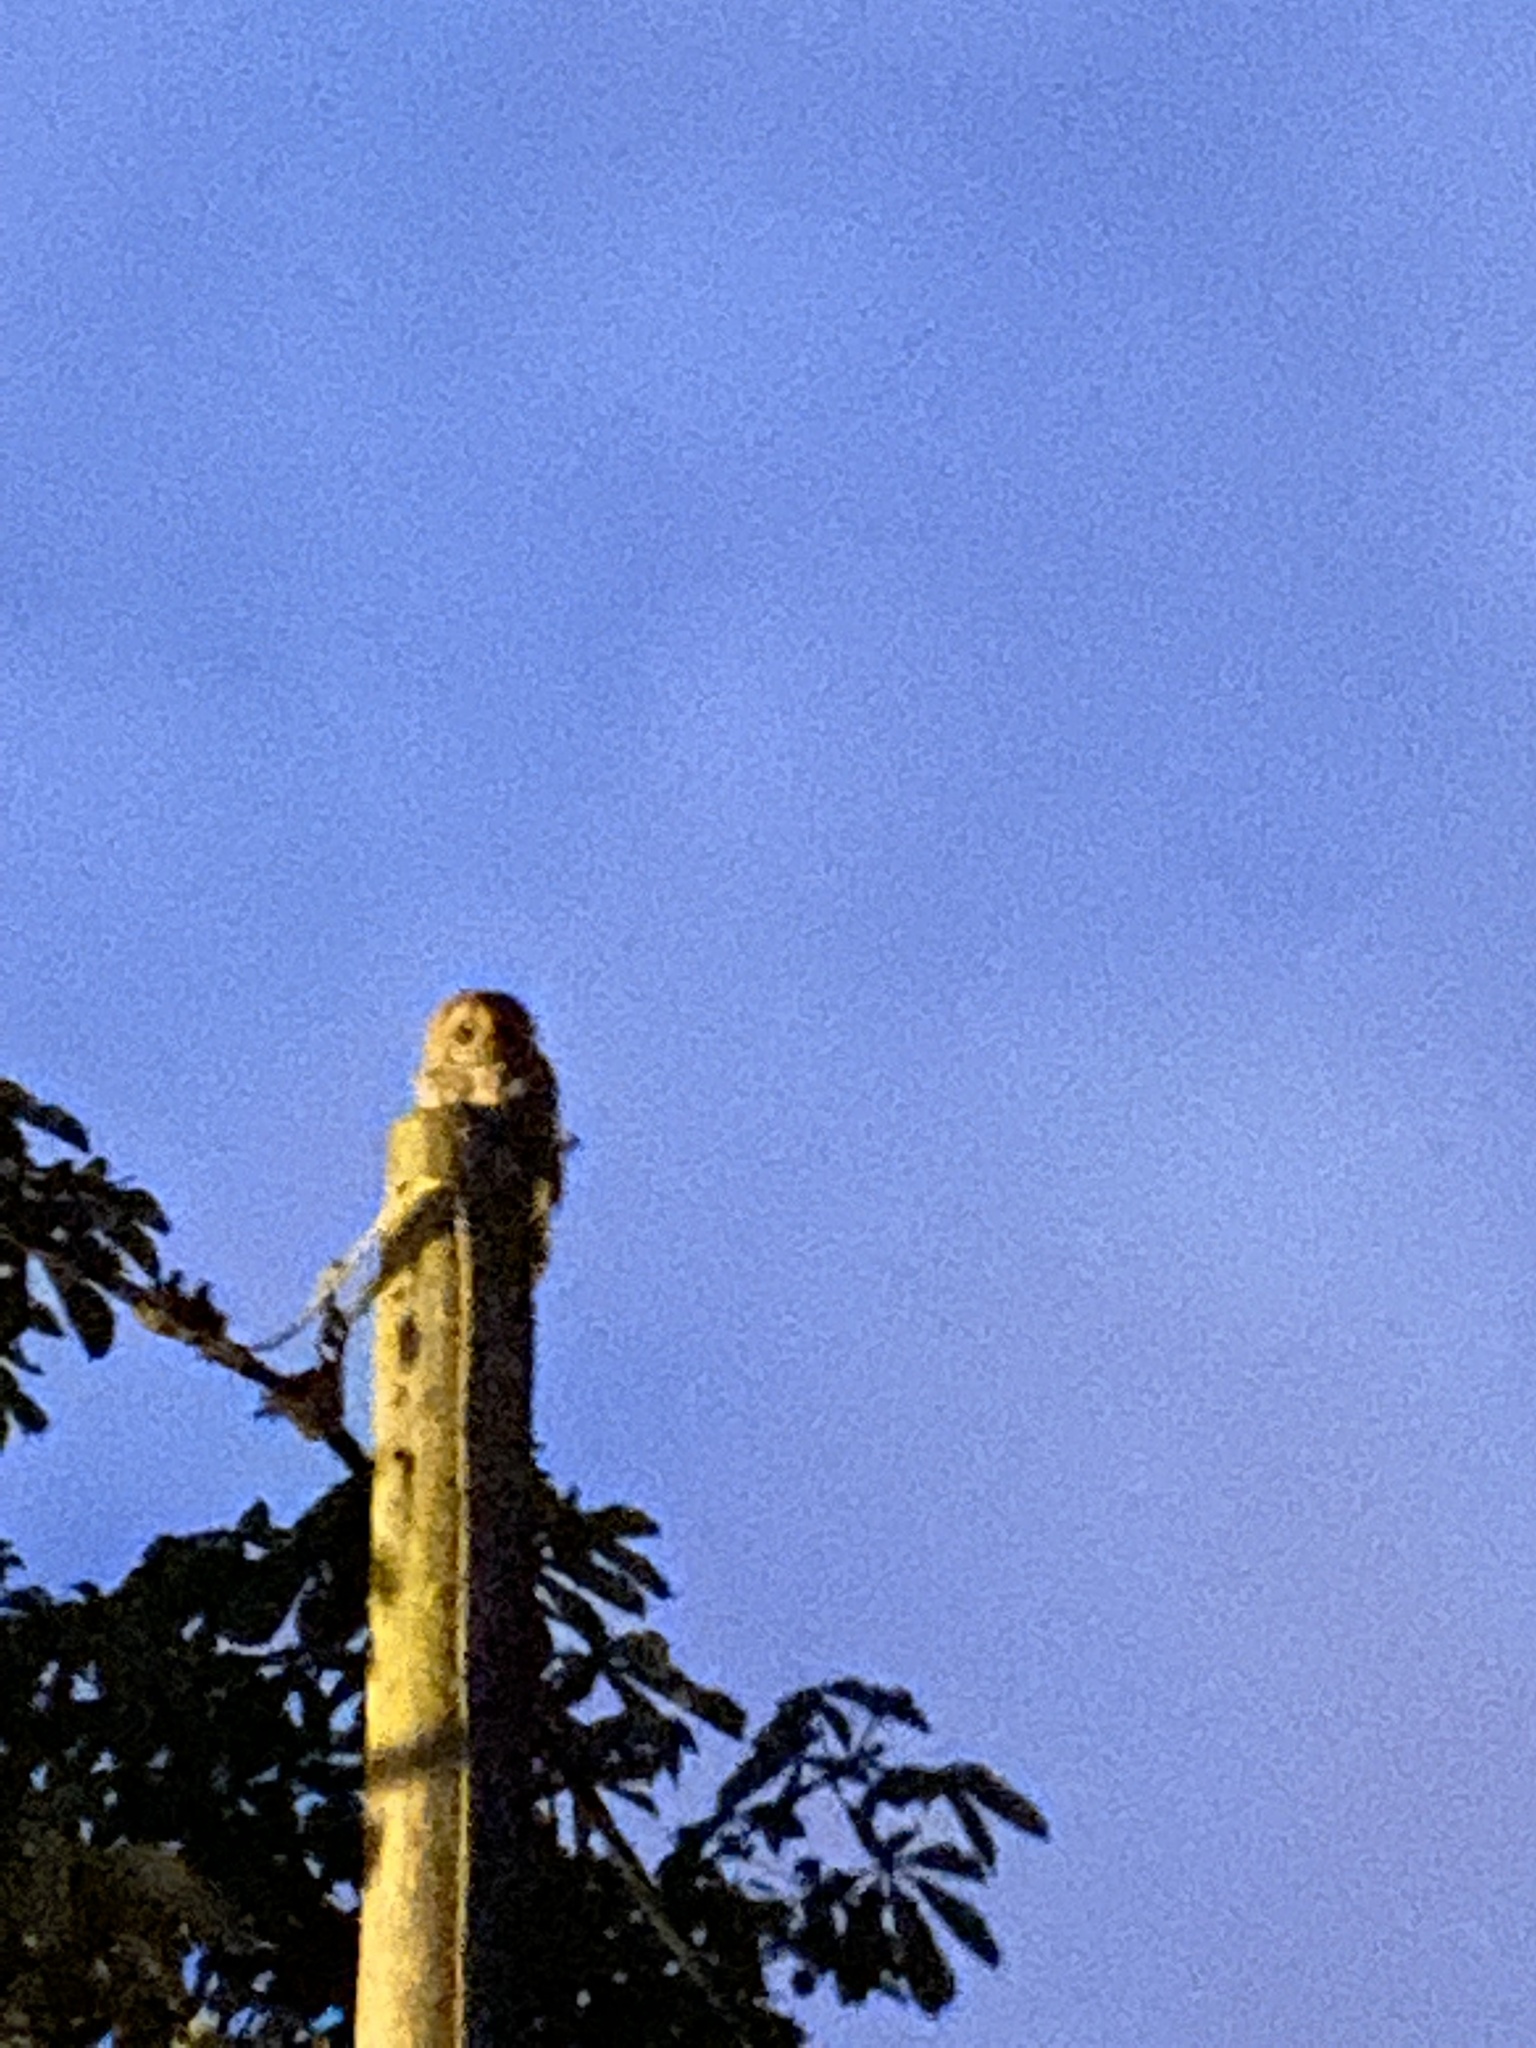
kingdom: Animalia
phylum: Chordata
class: Aves
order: Strigiformes
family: Strigidae
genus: Strix
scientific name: Strix aluco
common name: Tawny owl
